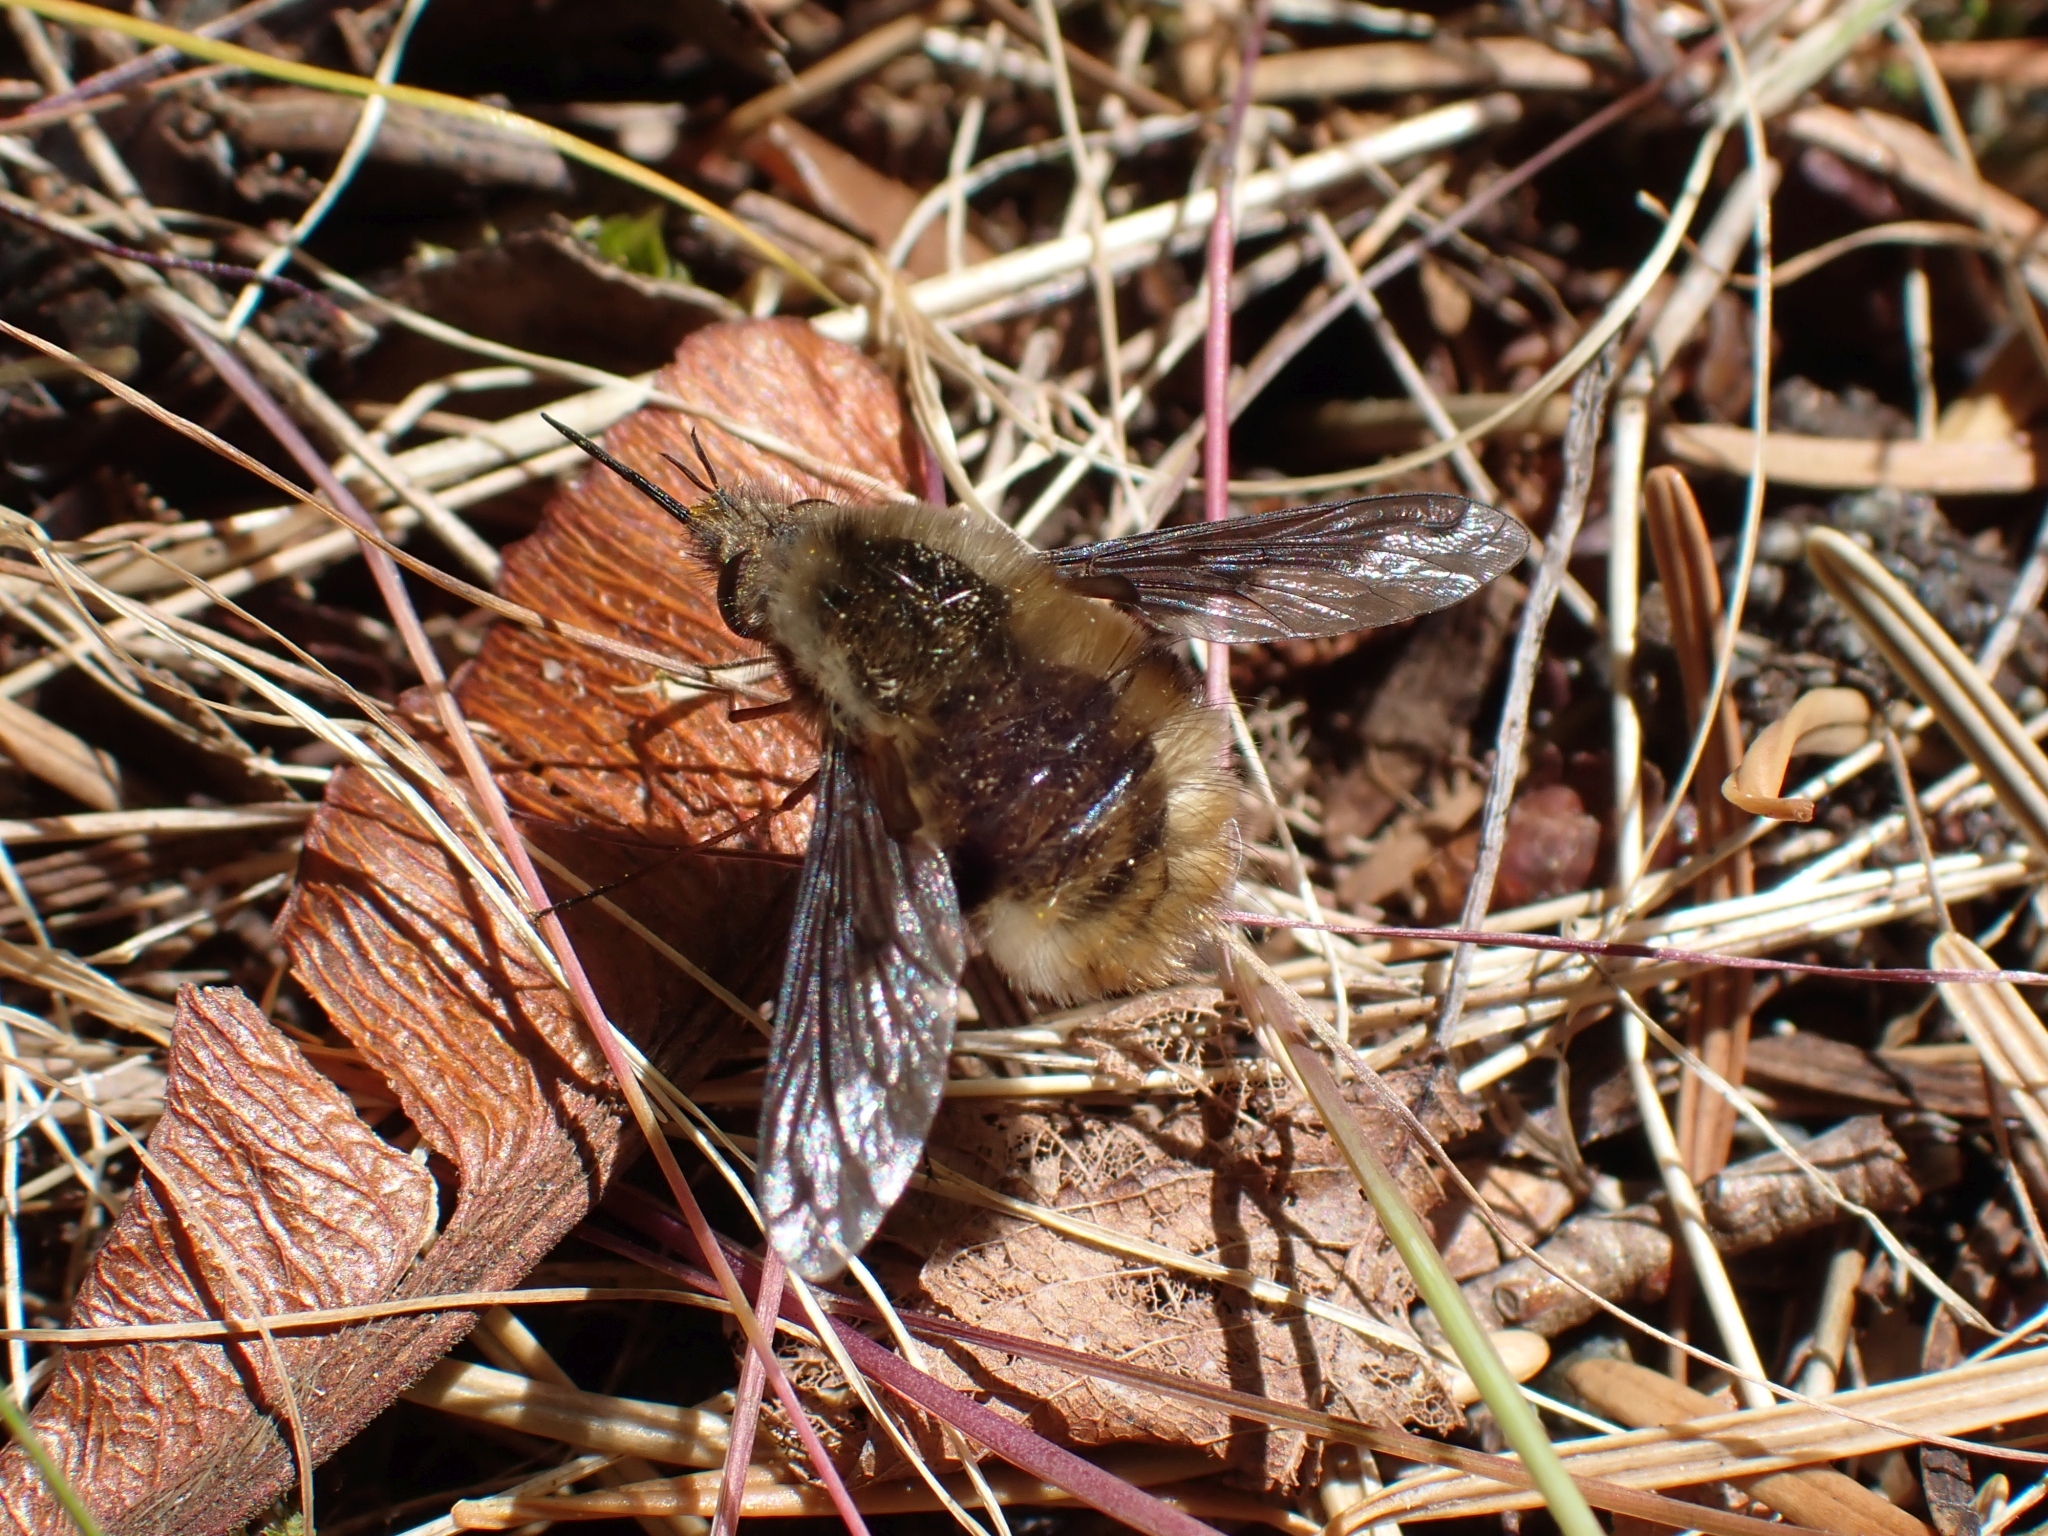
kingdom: Animalia
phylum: Arthropoda
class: Insecta
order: Diptera
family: Bombyliidae
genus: Bombylius
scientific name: Bombylius major
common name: Bee fly
